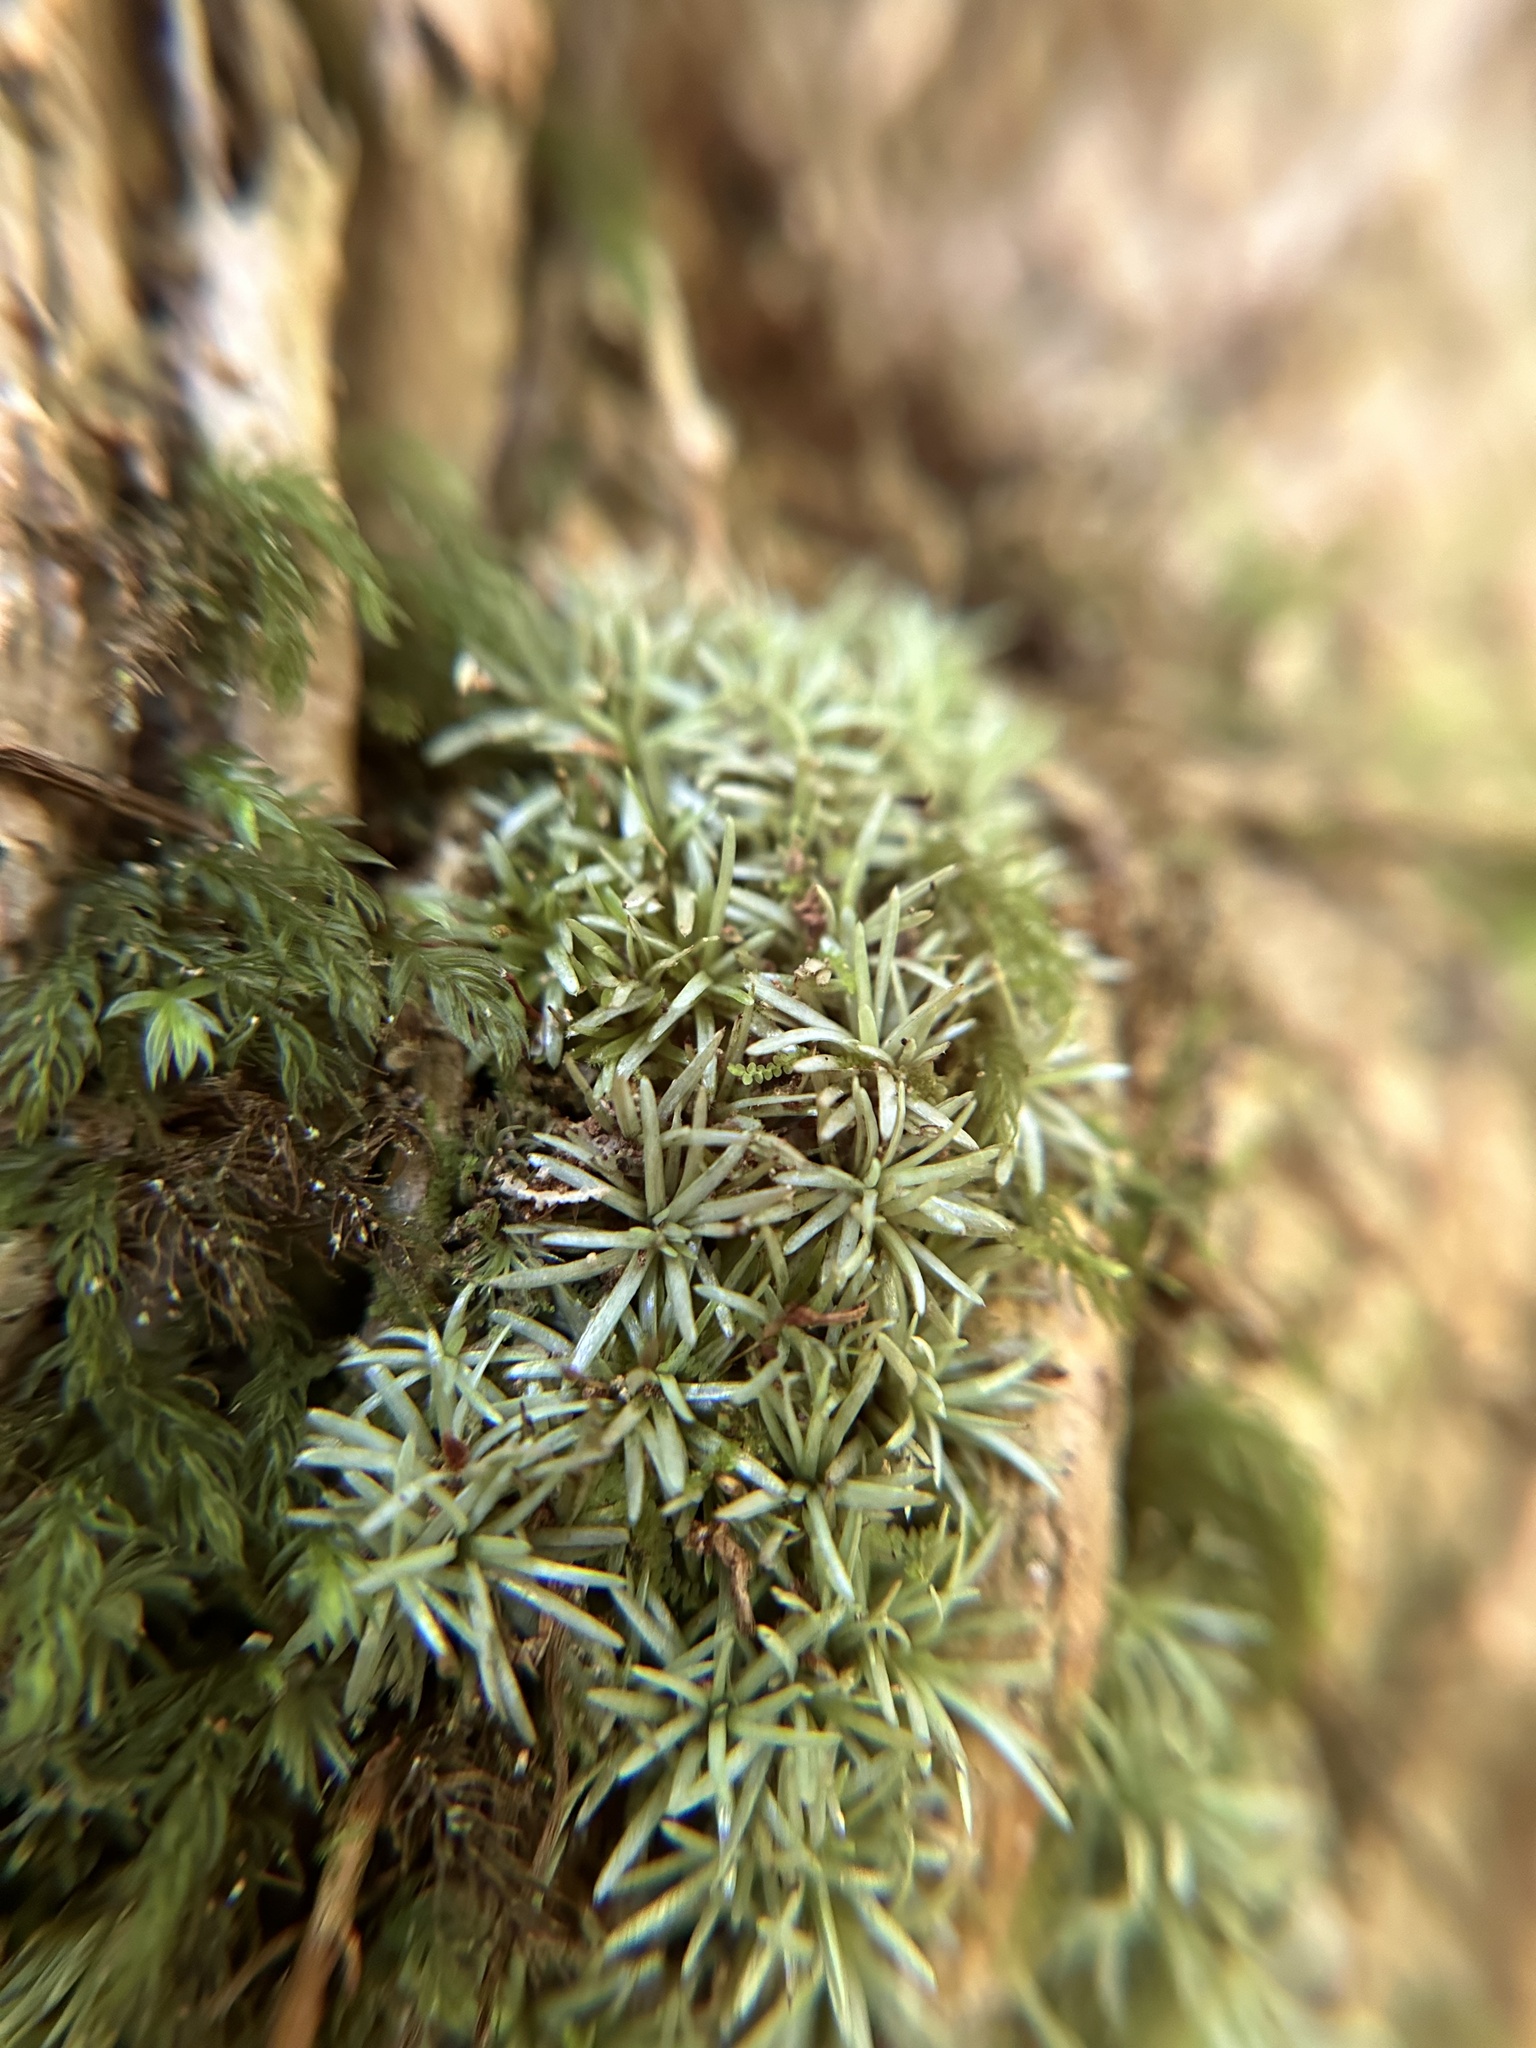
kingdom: Plantae
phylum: Bryophyta
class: Bryopsida
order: Dicranales
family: Octoblepharaceae
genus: Octoblepharum
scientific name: Octoblepharum albidum
